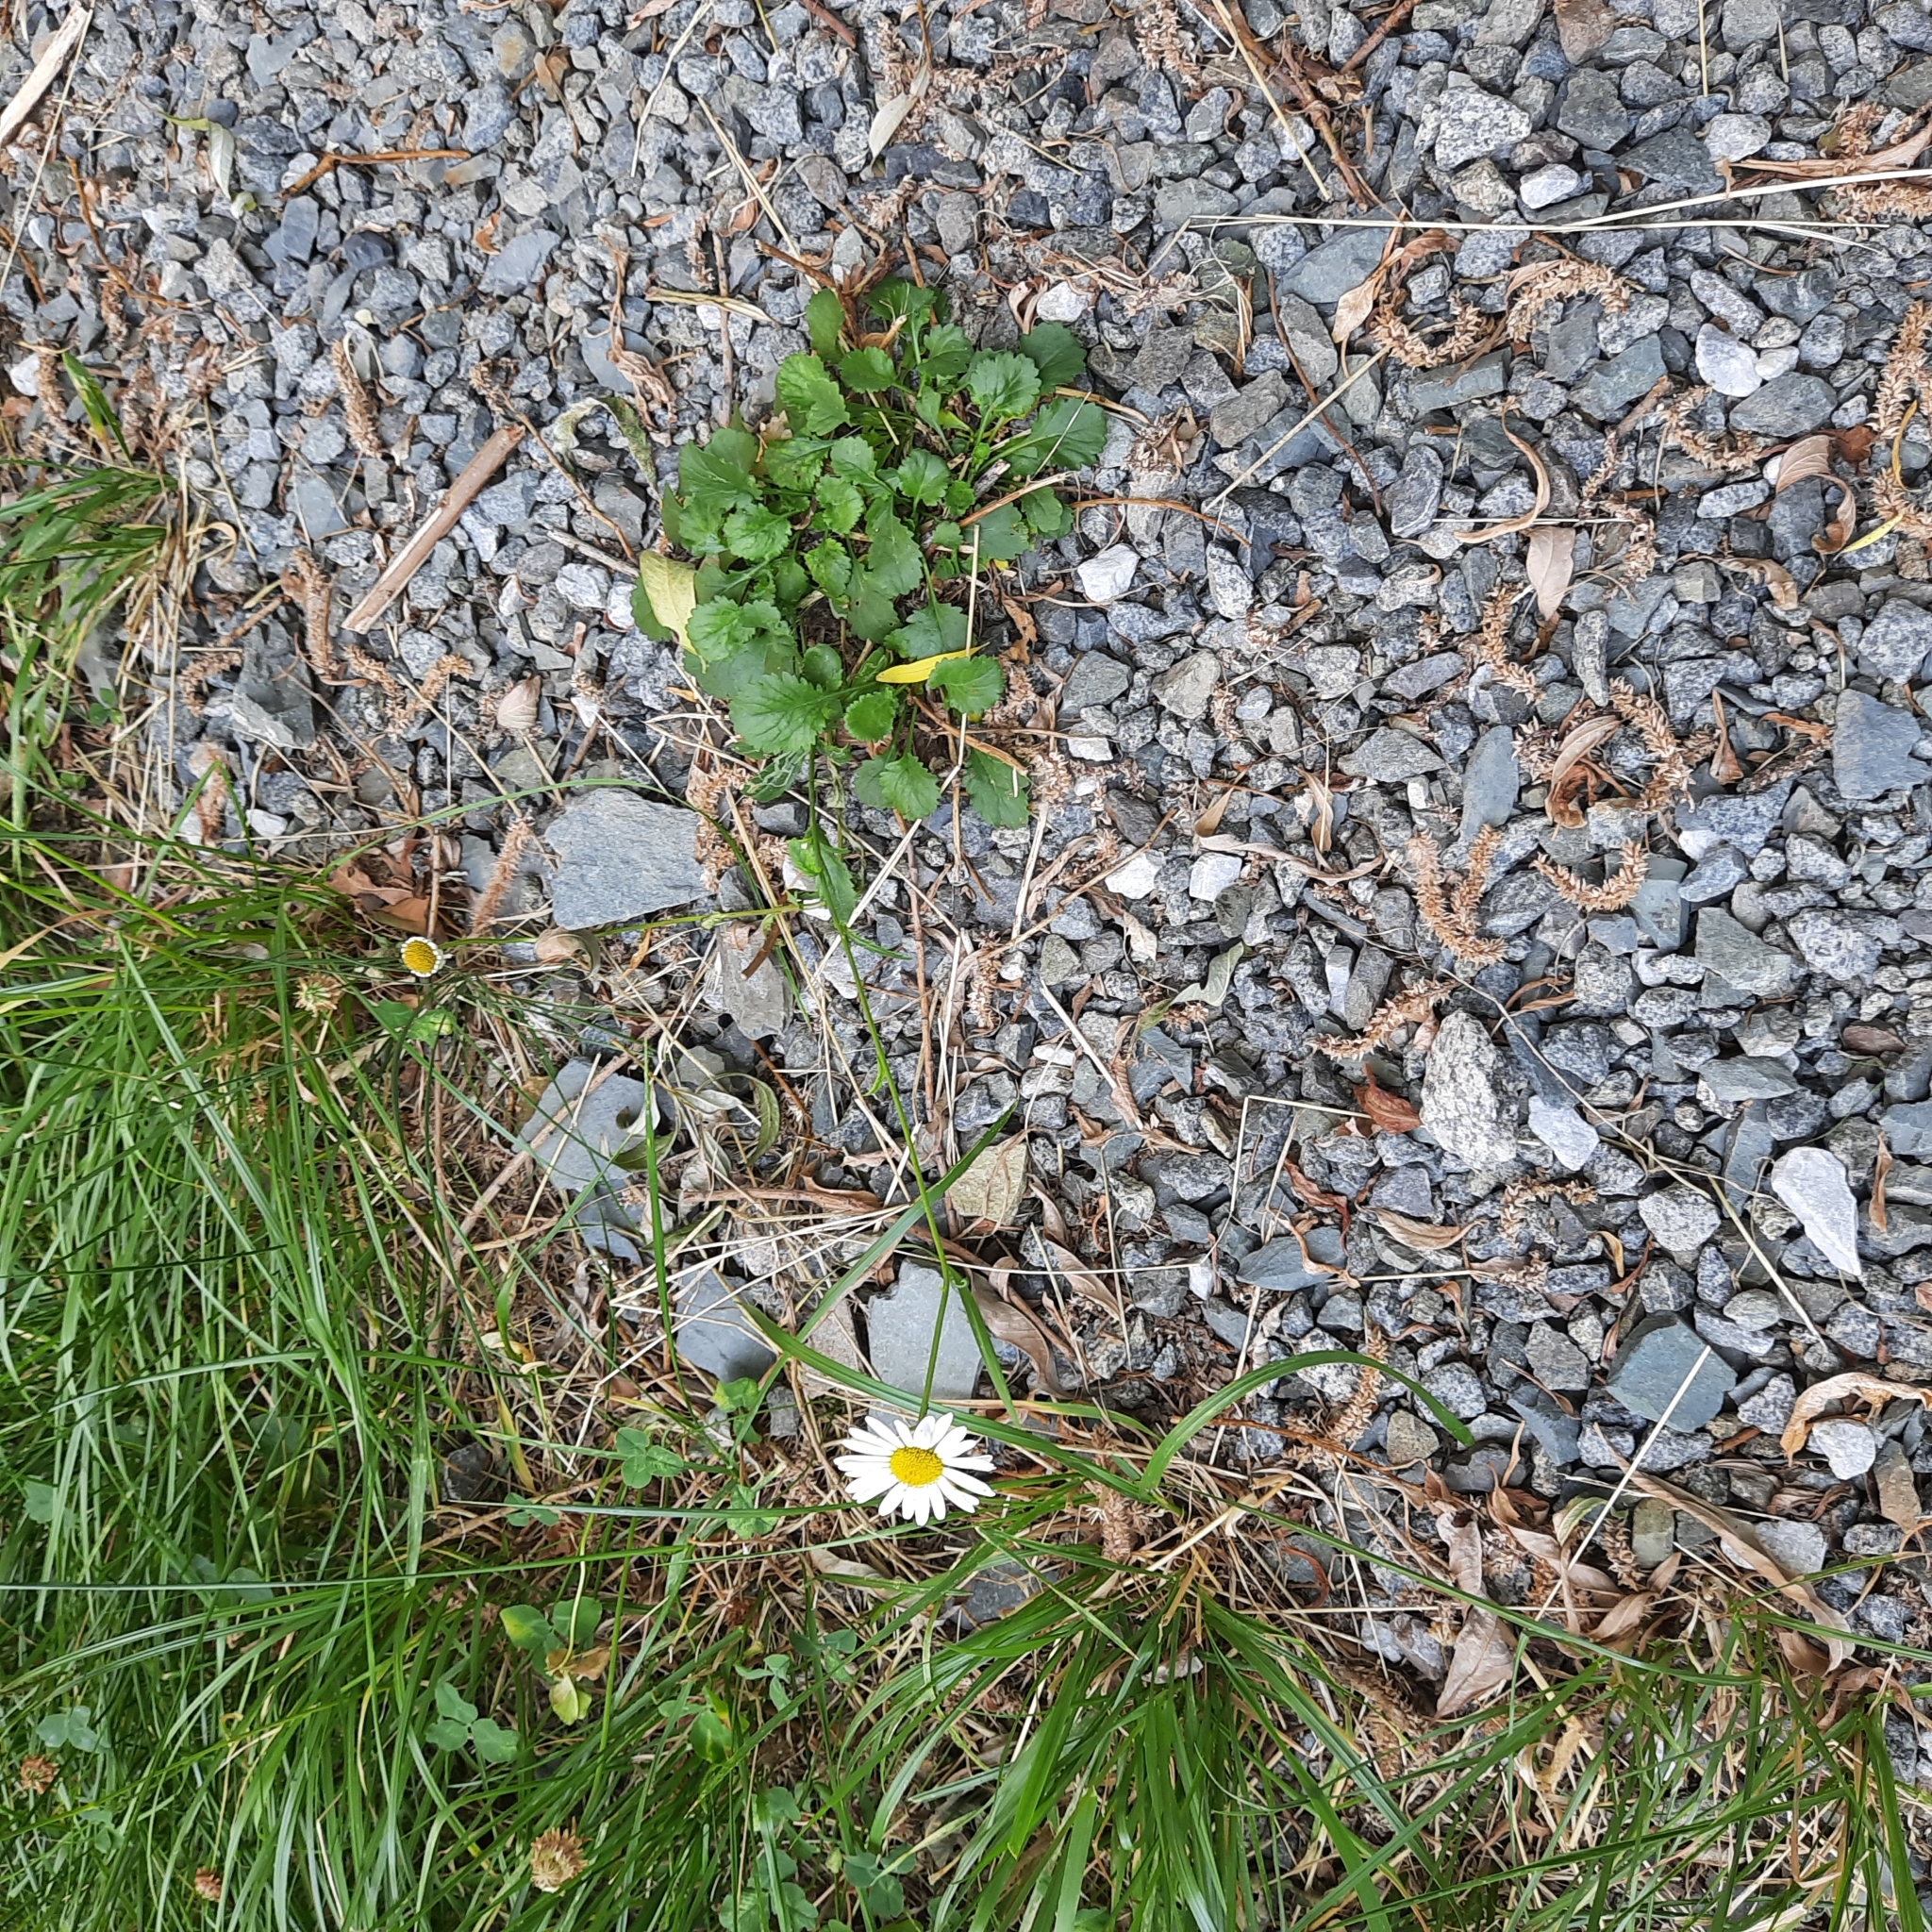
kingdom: Plantae
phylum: Tracheophyta
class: Magnoliopsida
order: Asterales
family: Asteraceae
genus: Leucanthemum
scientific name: Leucanthemum ircutianum
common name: Daisy
